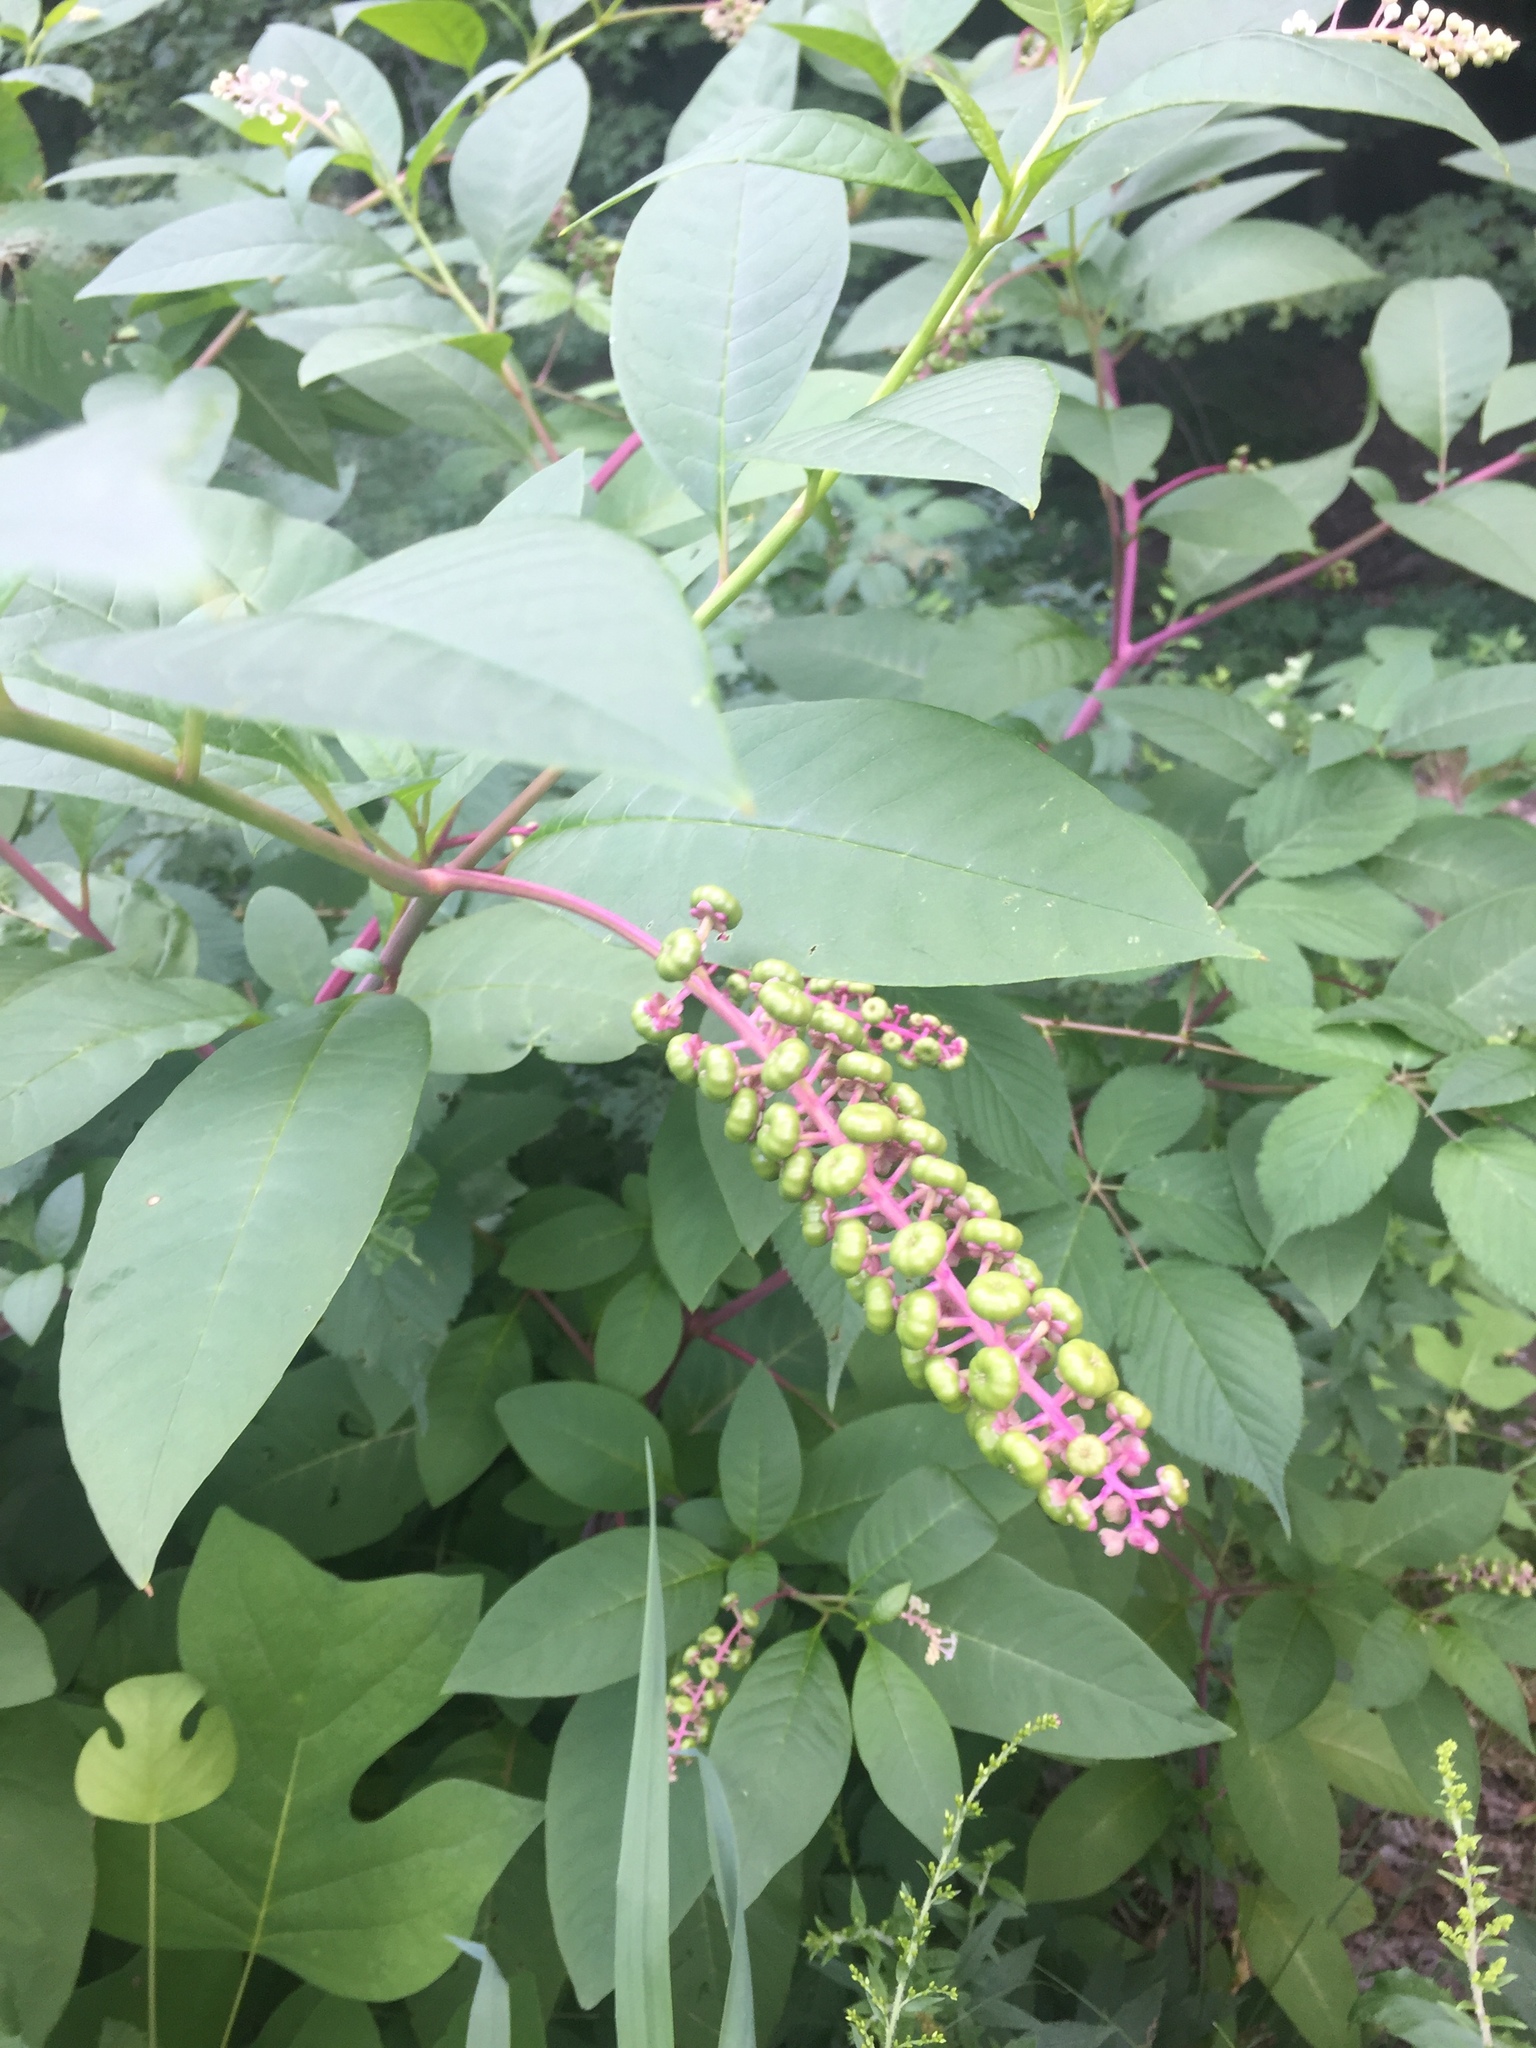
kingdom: Plantae
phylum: Tracheophyta
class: Magnoliopsida
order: Caryophyllales
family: Phytolaccaceae
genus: Phytolacca
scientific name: Phytolacca americana
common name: American pokeweed
